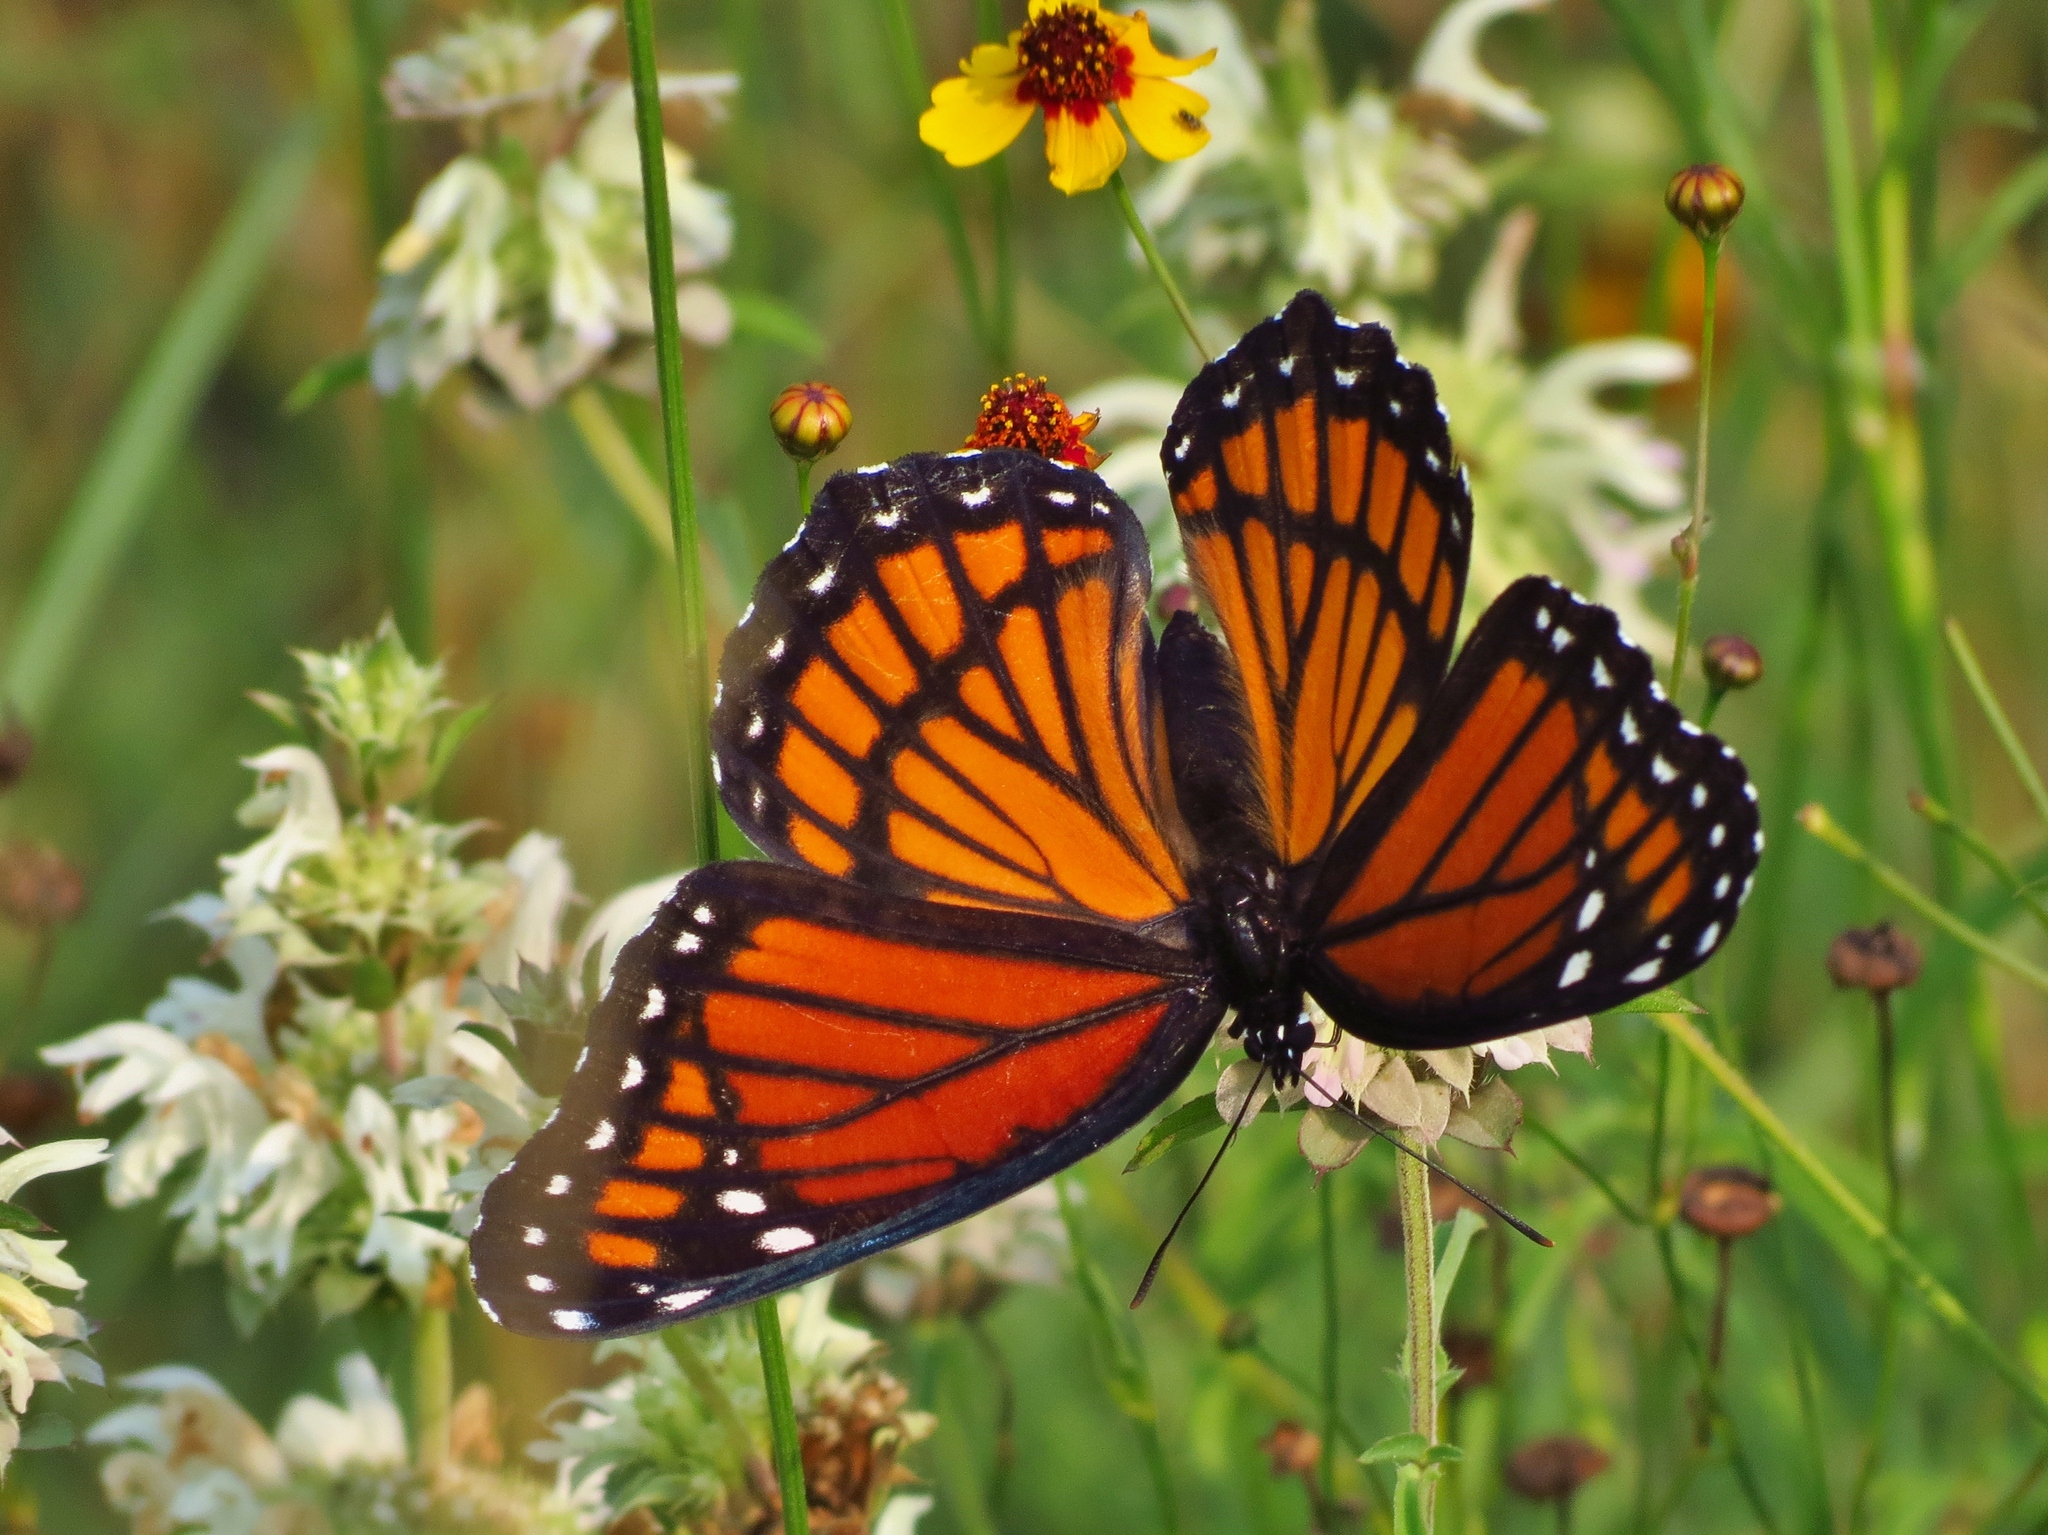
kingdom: Animalia
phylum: Arthropoda
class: Insecta
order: Lepidoptera
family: Nymphalidae
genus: Limenitis
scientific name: Limenitis archippus
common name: Viceroy
